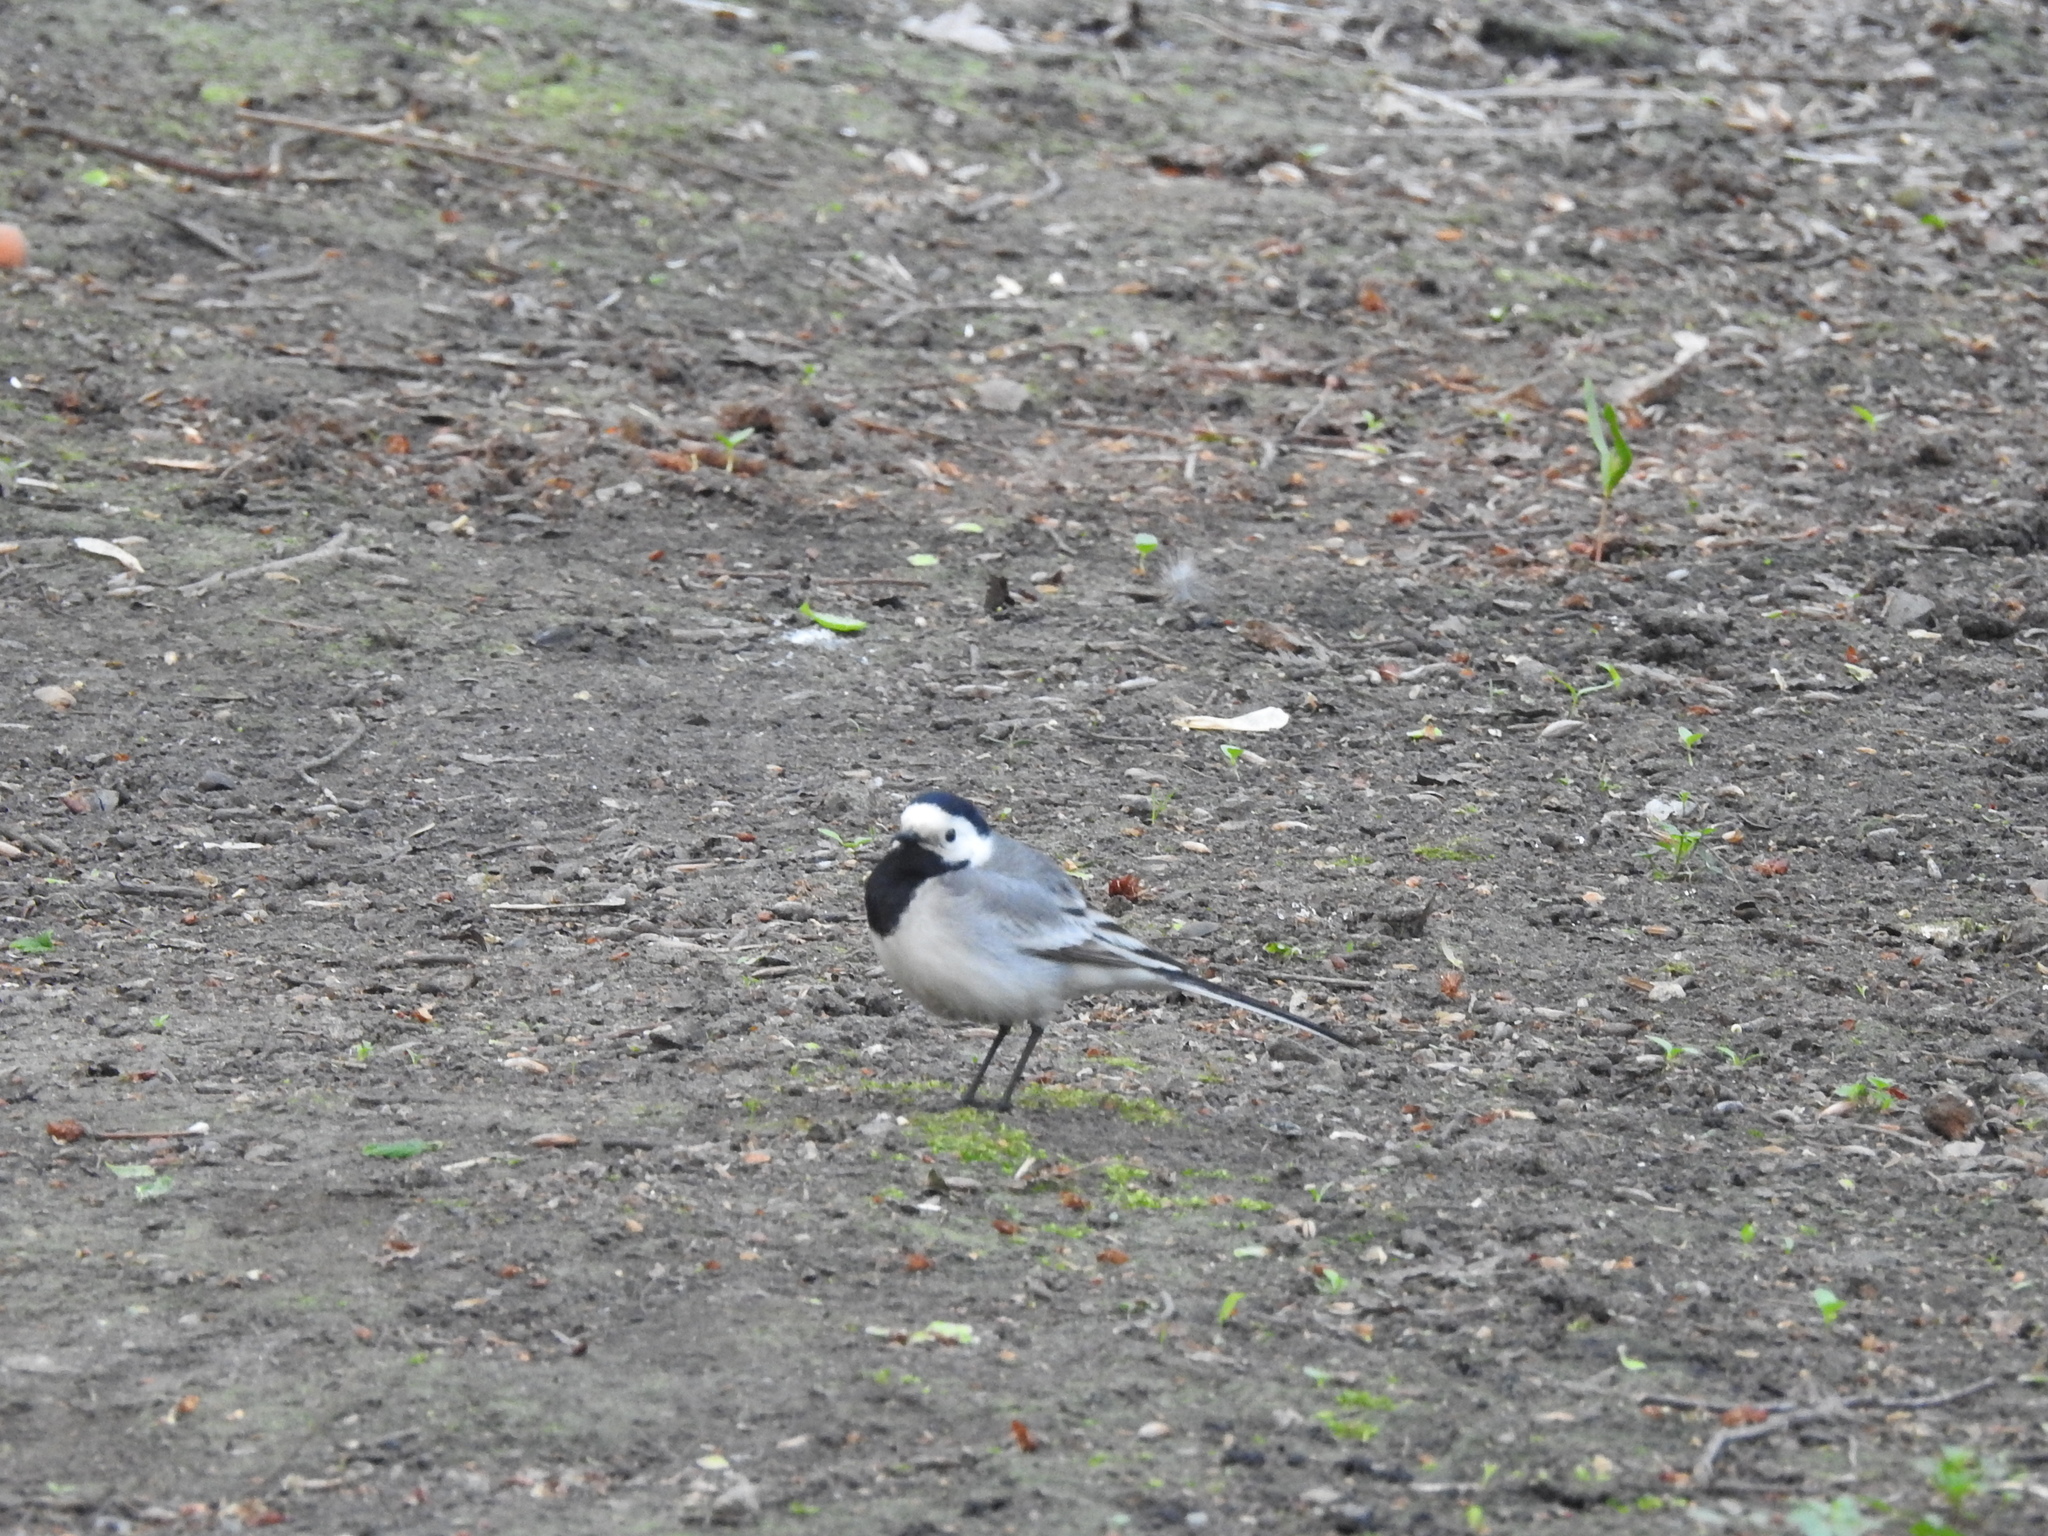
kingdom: Animalia
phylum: Chordata
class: Aves
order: Passeriformes
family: Motacillidae
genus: Motacilla
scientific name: Motacilla alba
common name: White wagtail
